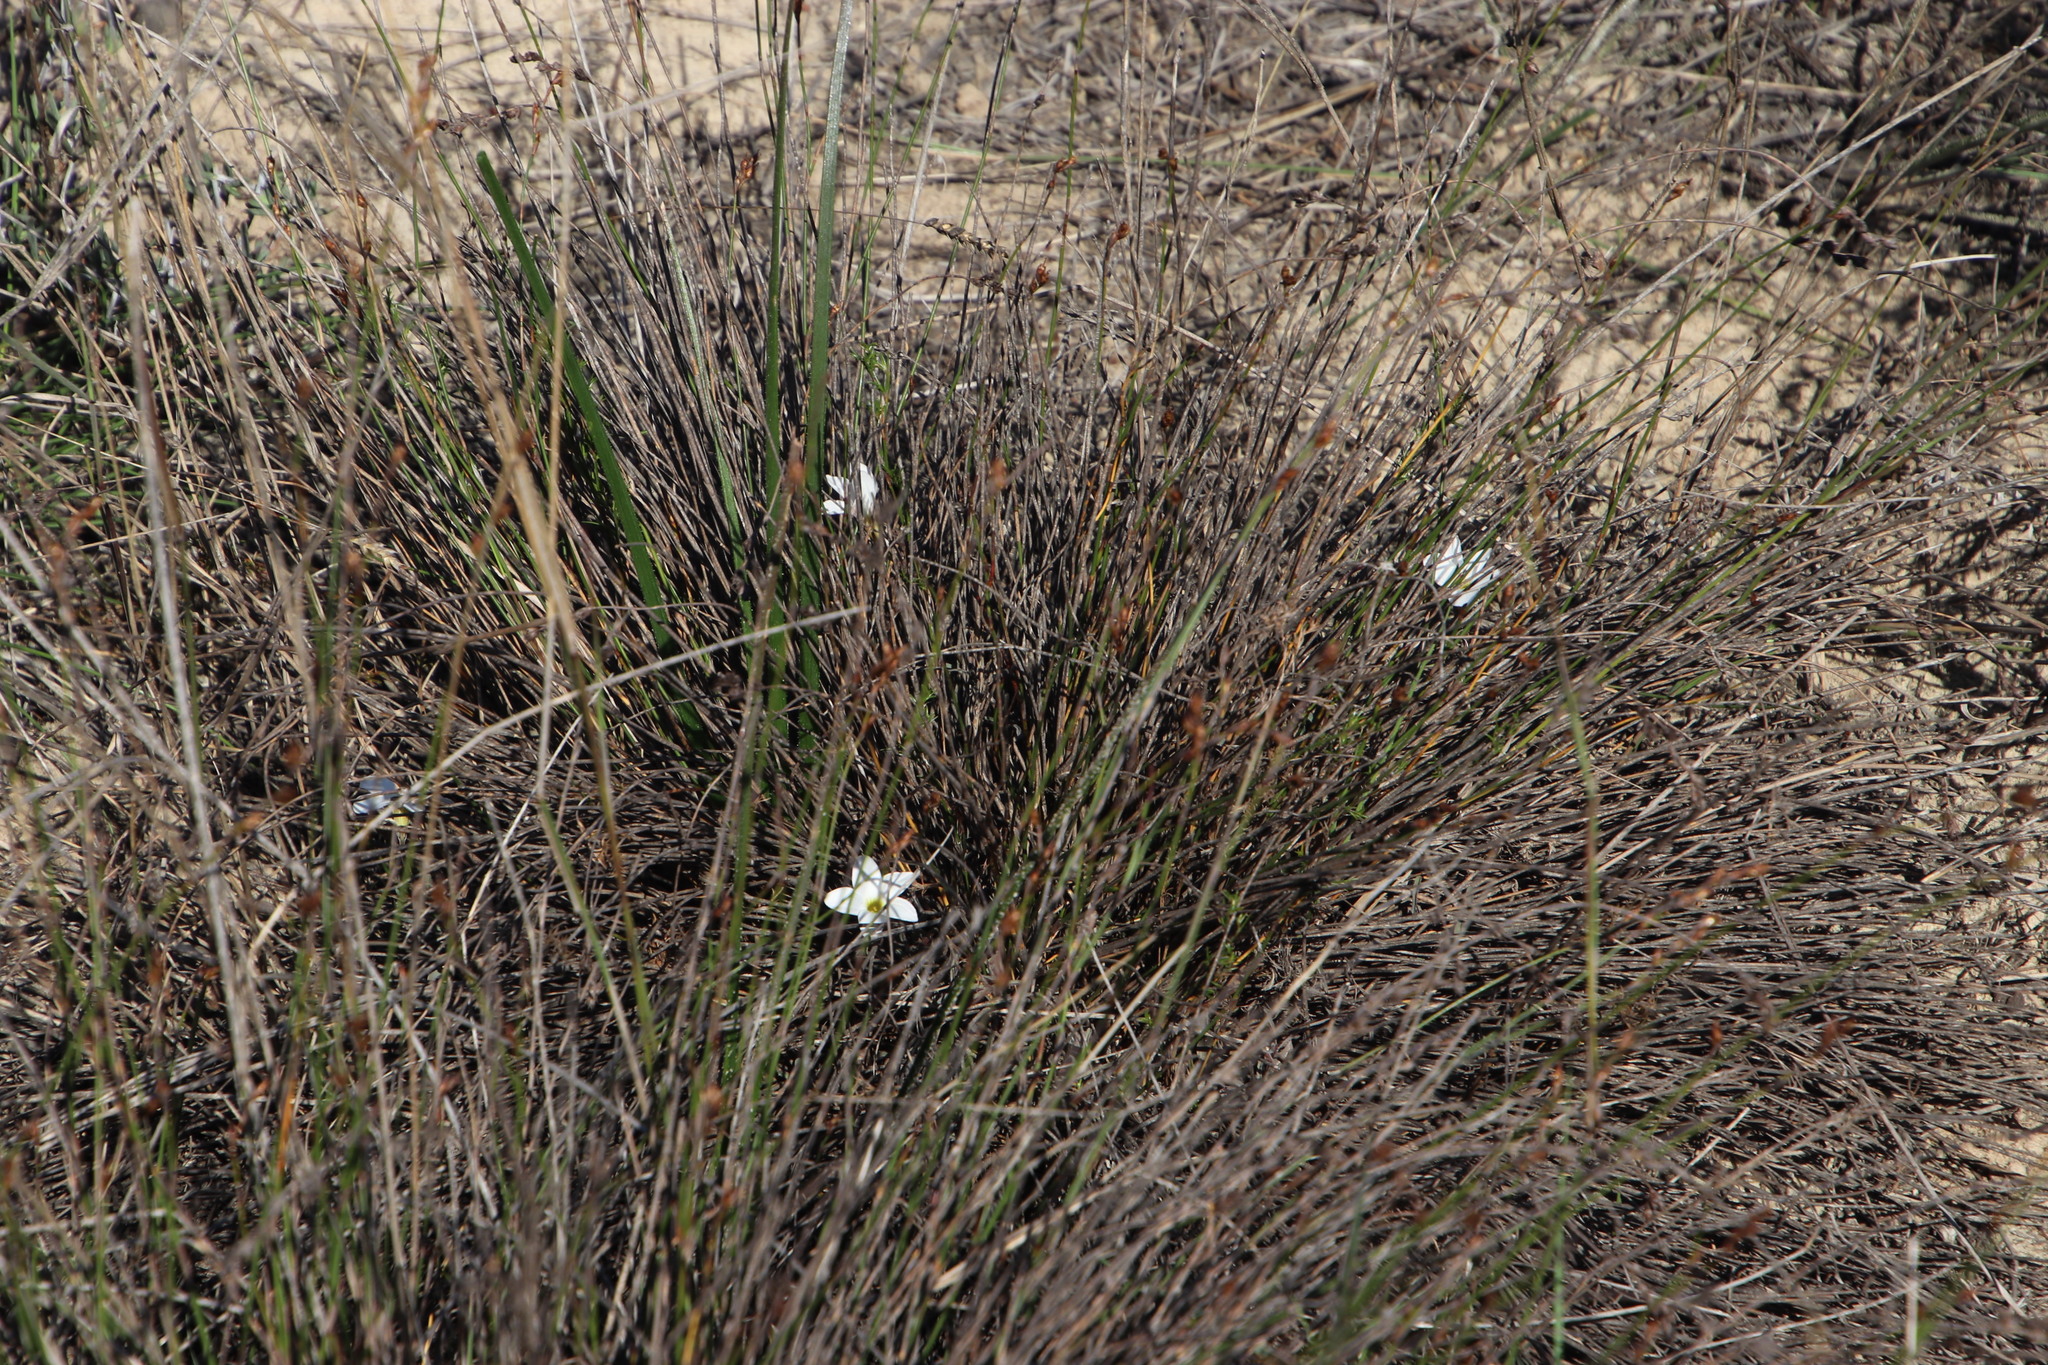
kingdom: Plantae
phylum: Tracheophyta
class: Liliopsida
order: Asparagales
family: Asphodelaceae
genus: Trachyandra
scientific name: Trachyandra revoluta
